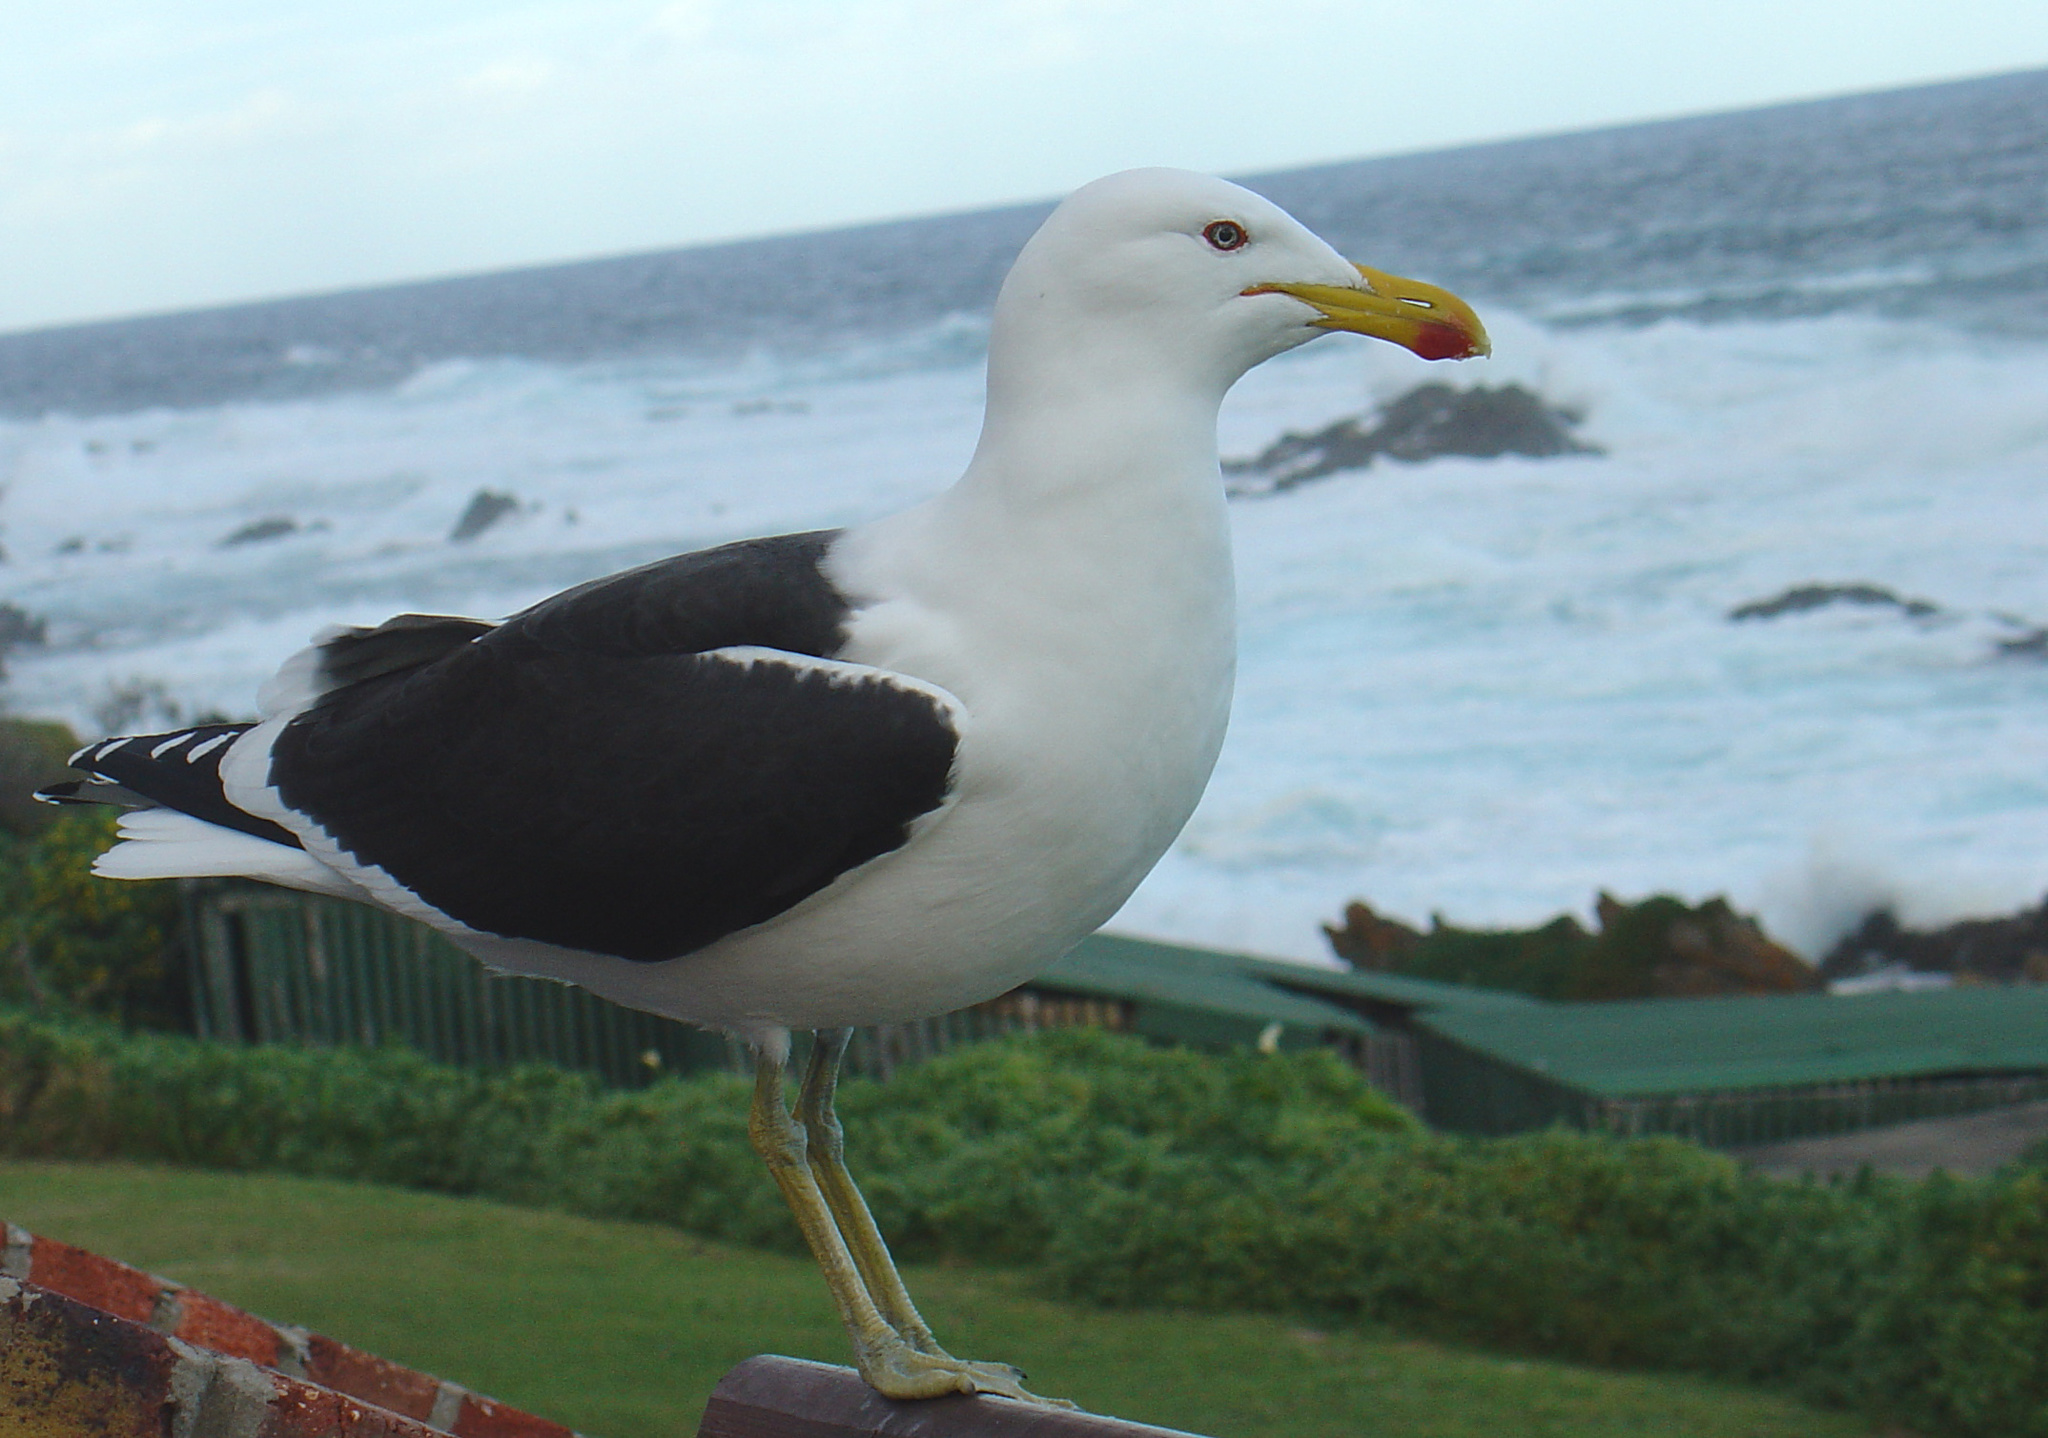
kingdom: Animalia
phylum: Chordata
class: Aves
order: Charadriiformes
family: Laridae
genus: Larus
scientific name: Larus dominicanus
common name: Kelp gull
